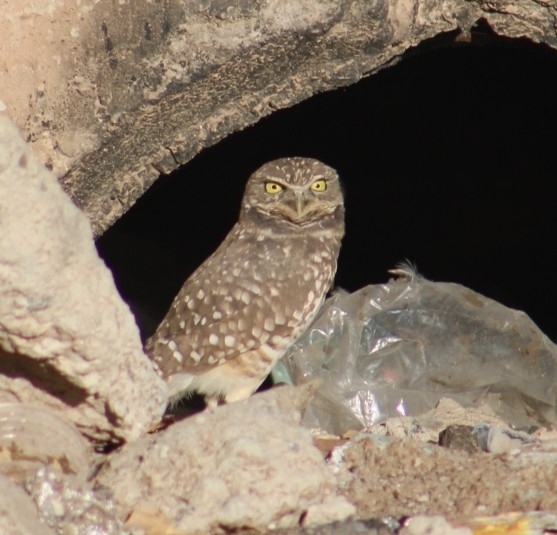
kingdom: Animalia
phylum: Chordata
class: Aves
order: Strigiformes
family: Strigidae
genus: Athene
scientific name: Athene cunicularia
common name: Burrowing owl
